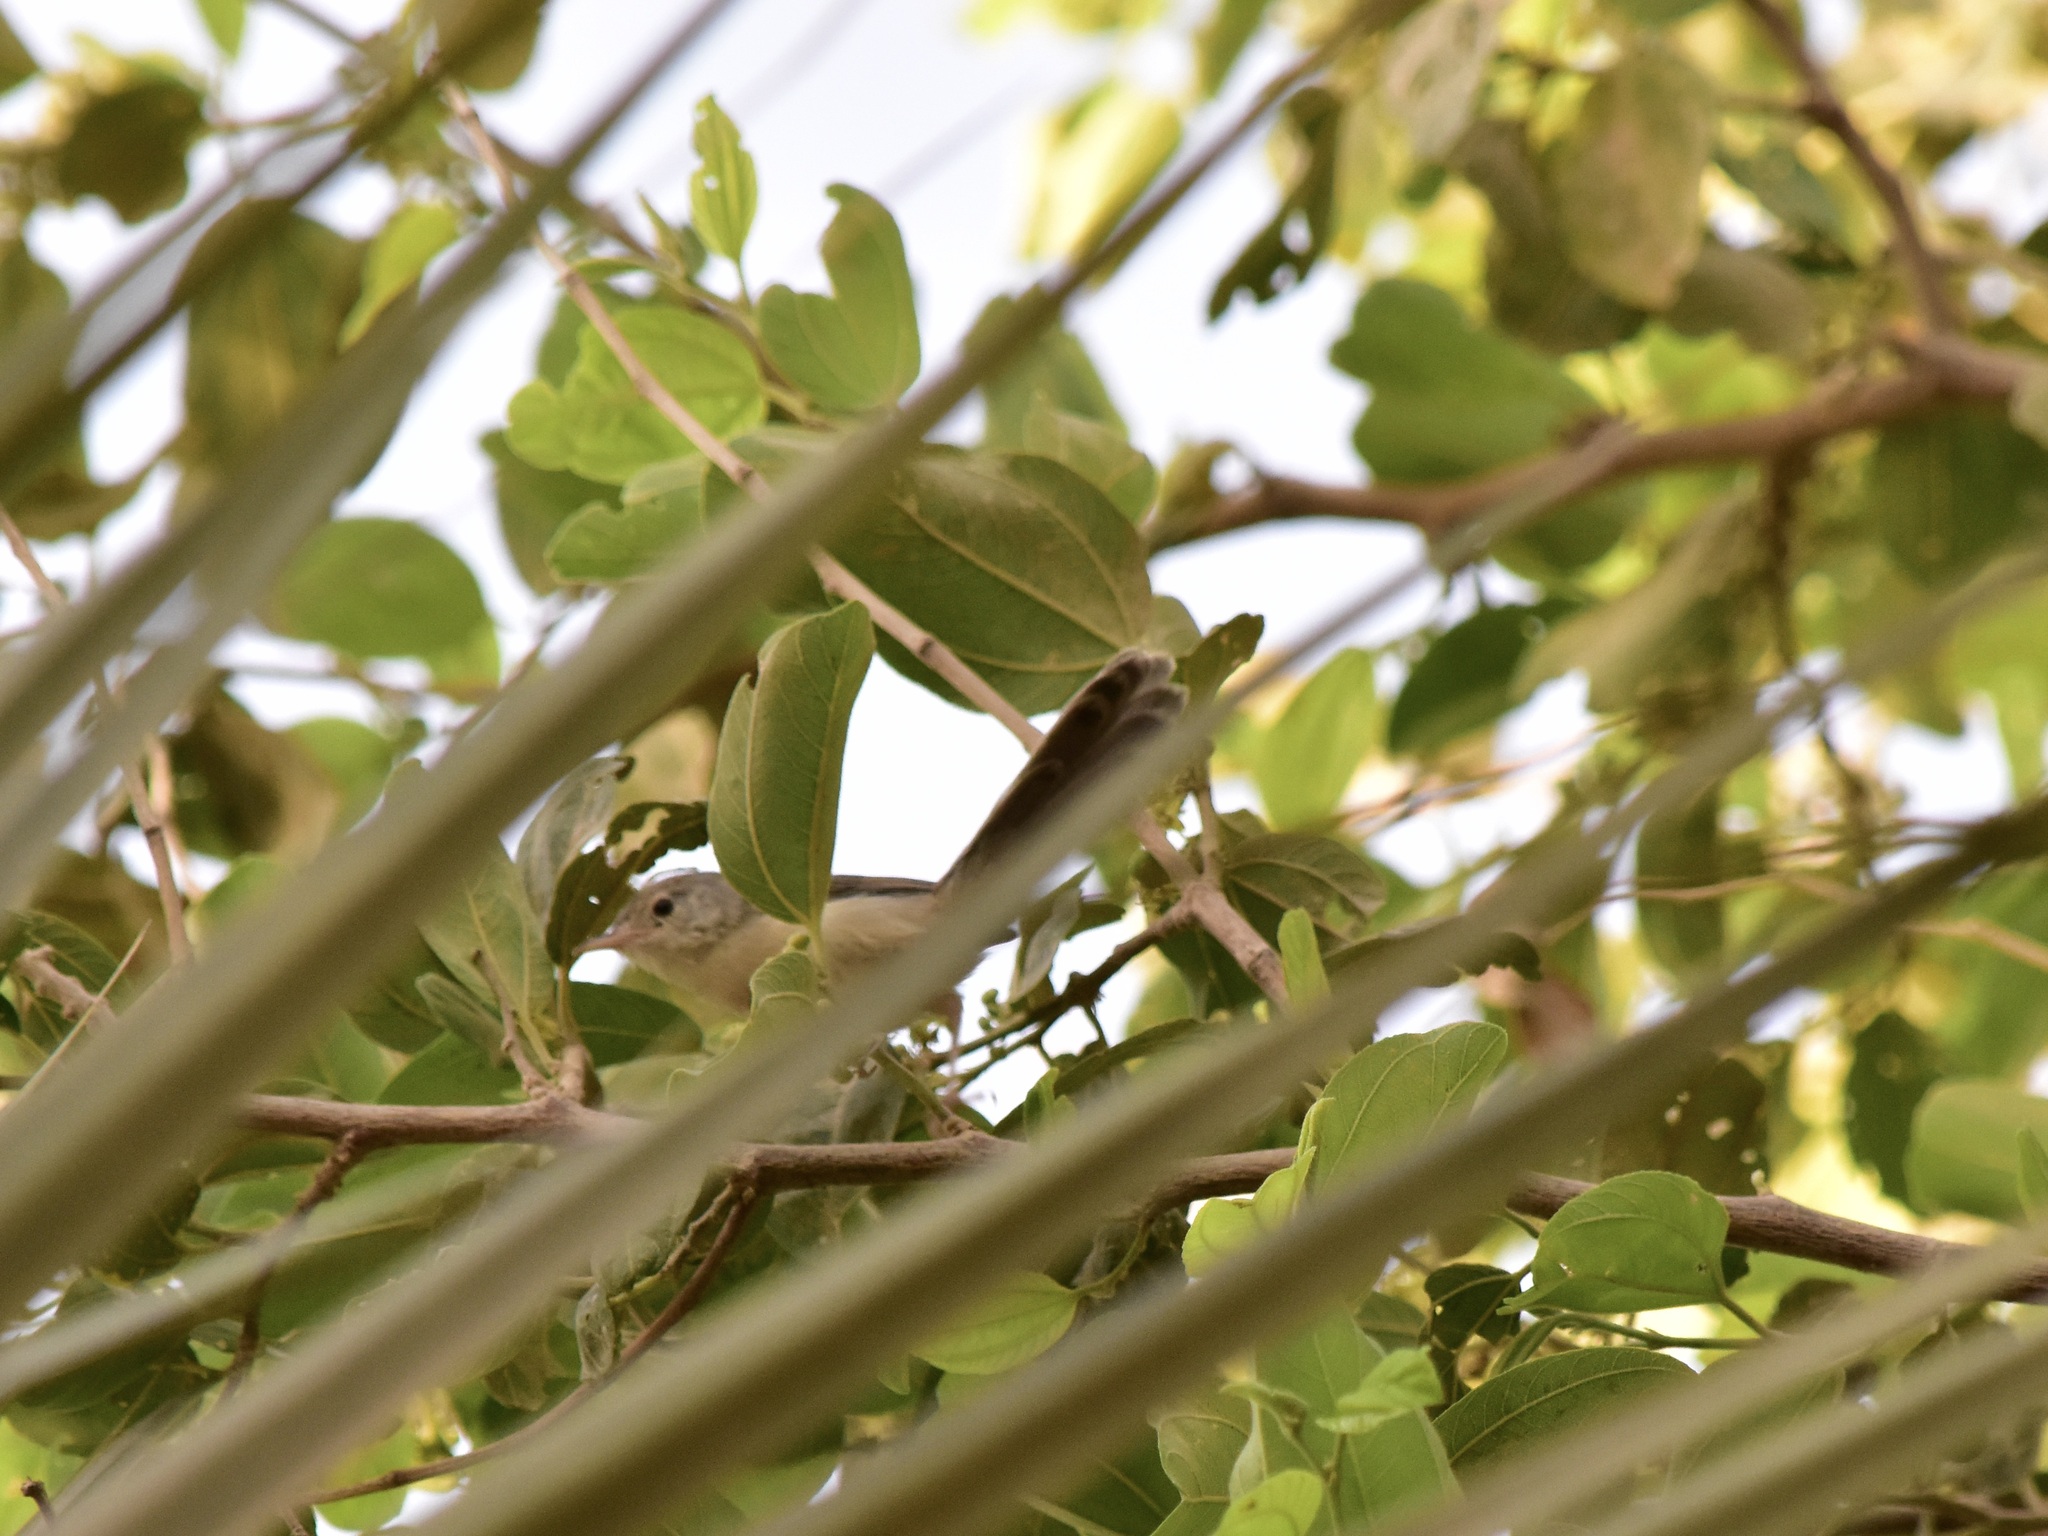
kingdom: Animalia
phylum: Chordata
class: Aves
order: Passeriformes
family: Cisticolidae
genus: Prinia
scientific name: Prinia lepida
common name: Delicate prinia
